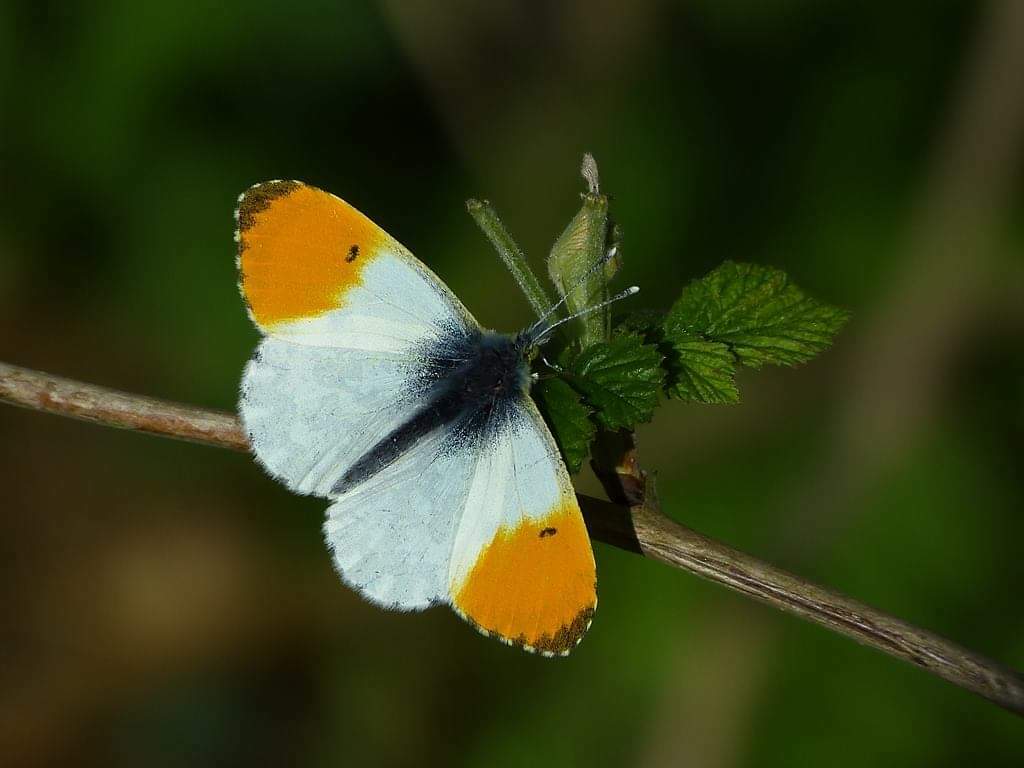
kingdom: Animalia
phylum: Arthropoda
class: Insecta
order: Lepidoptera
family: Pieridae
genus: Anthocharis
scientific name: Anthocharis cardamines
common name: Orange-tip
